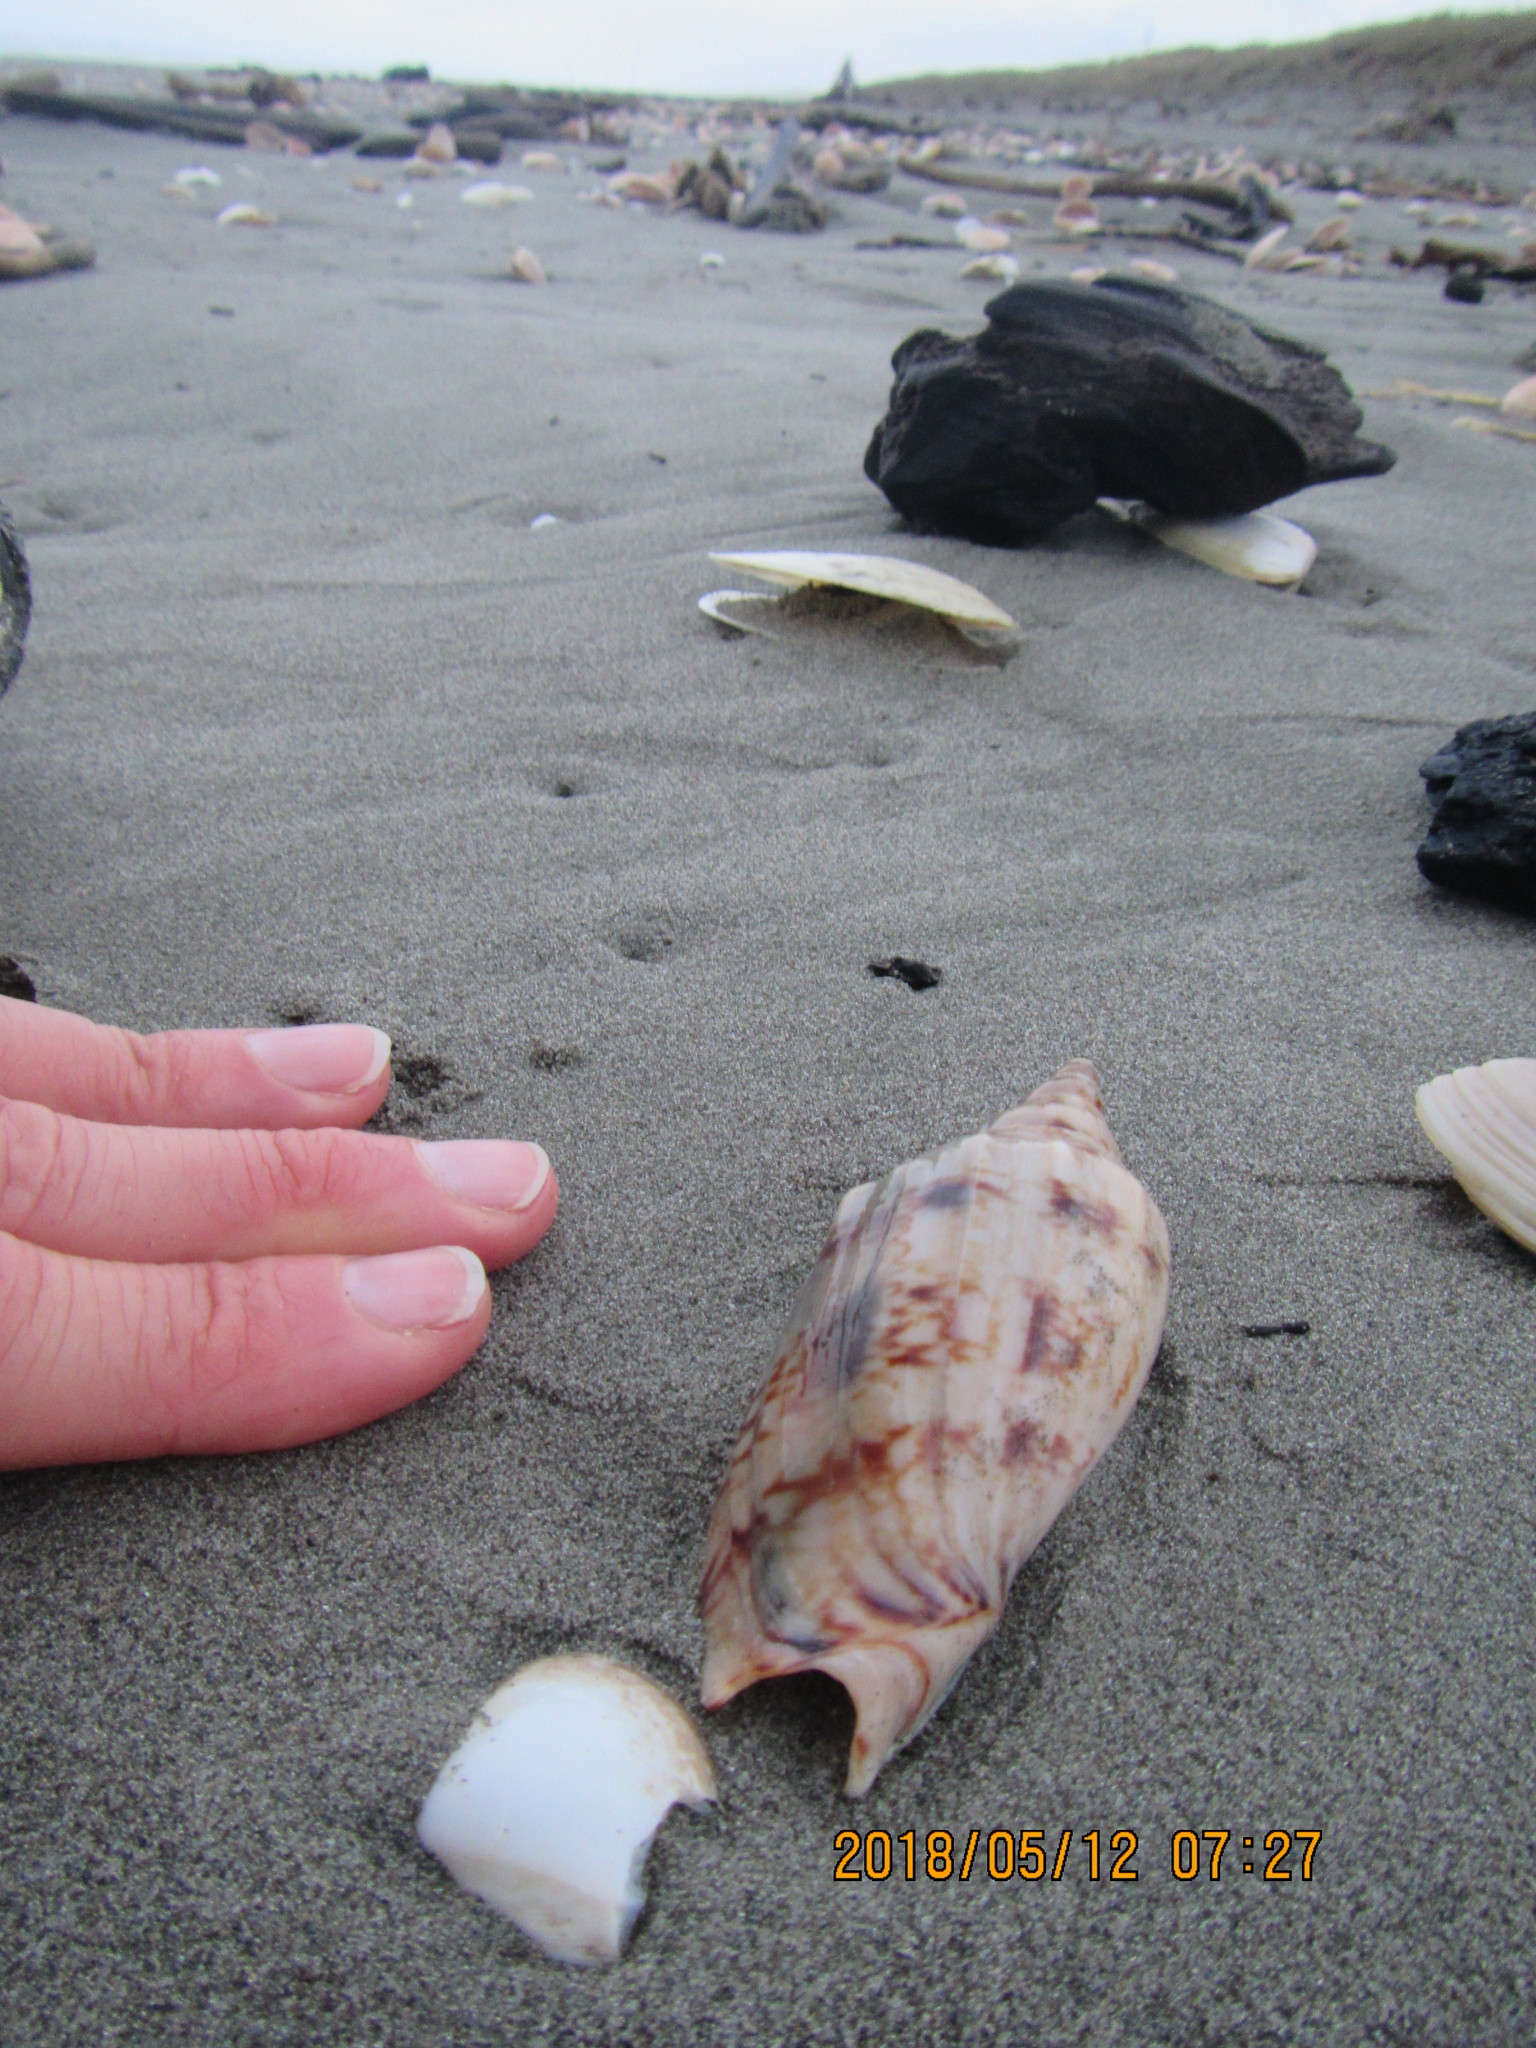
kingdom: Animalia
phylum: Mollusca
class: Gastropoda
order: Neogastropoda
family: Volutidae
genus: Alcithoe
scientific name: Alcithoe arabica
